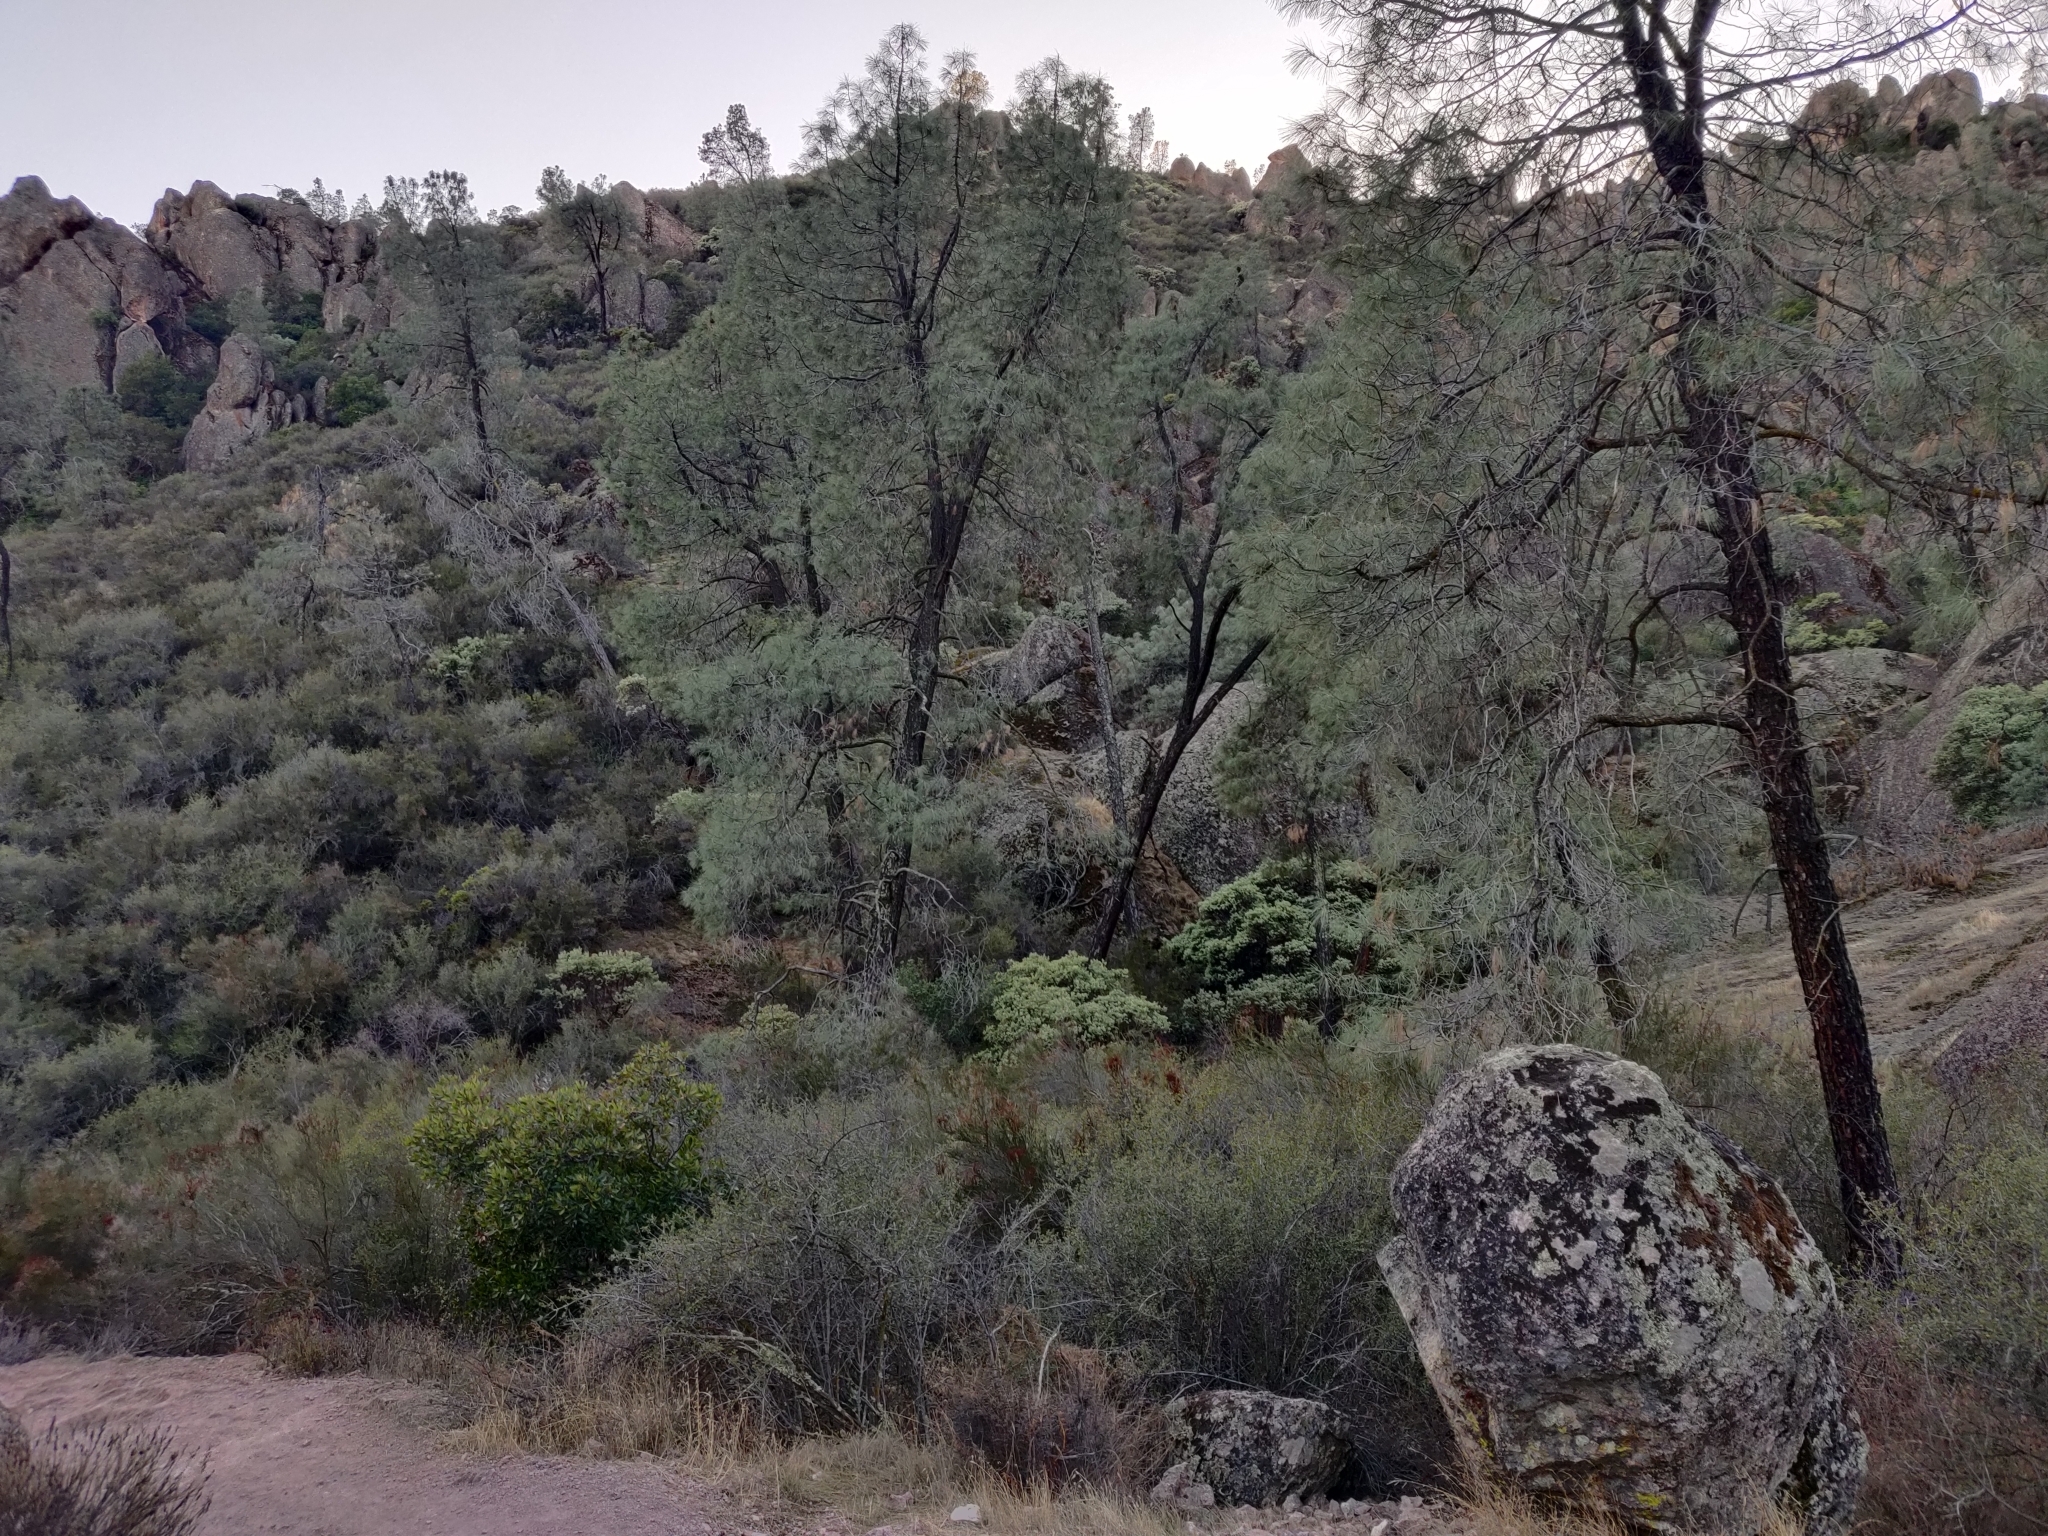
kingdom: Plantae
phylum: Tracheophyta
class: Pinopsida
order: Pinales
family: Pinaceae
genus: Pinus
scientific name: Pinus sabiniana
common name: Bull pine
